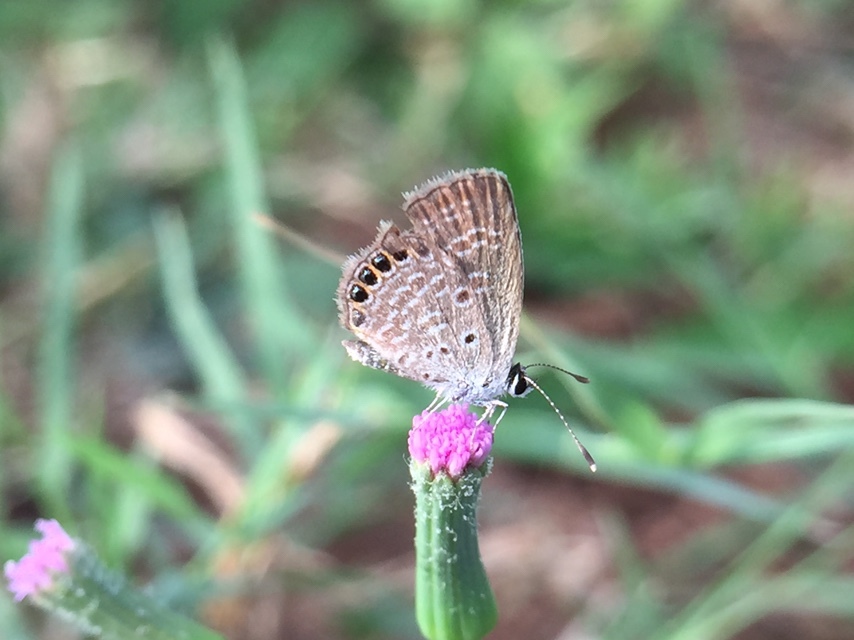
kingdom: Animalia
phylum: Arthropoda
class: Insecta
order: Lepidoptera
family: Lycaenidae
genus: Freyeria
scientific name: Freyeria putli
